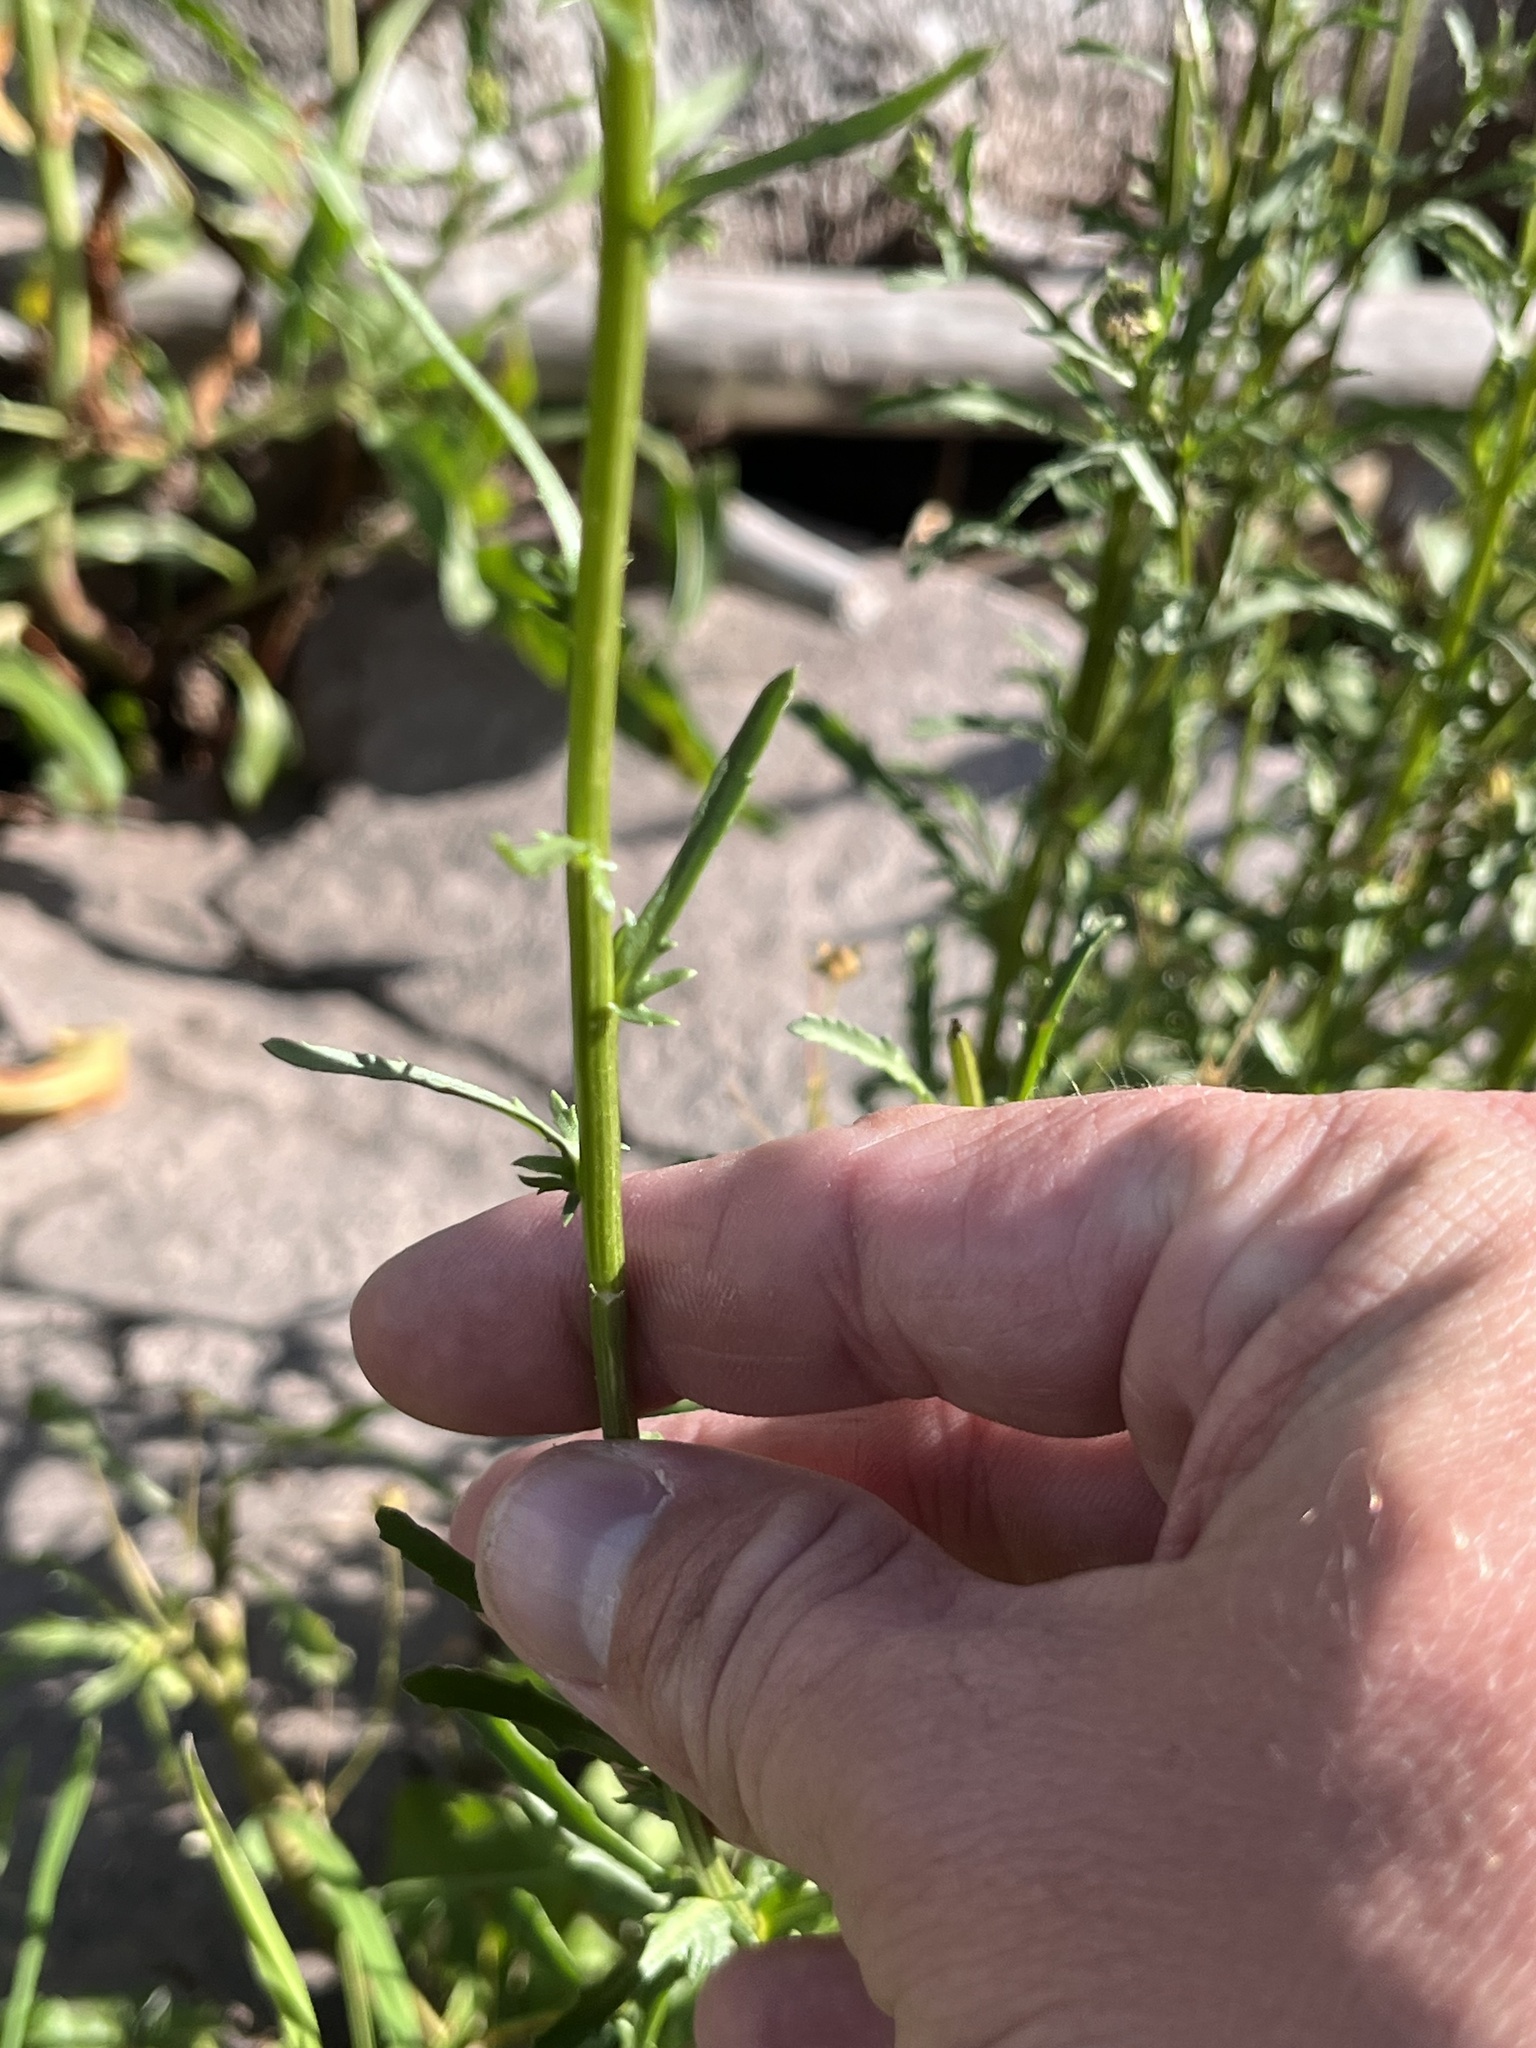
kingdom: Plantae
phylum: Tracheophyta
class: Magnoliopsida
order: Asterales
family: Asteraceae
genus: Leucanthemum
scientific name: Leucanthemum vulgare
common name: Oxeye daisy
